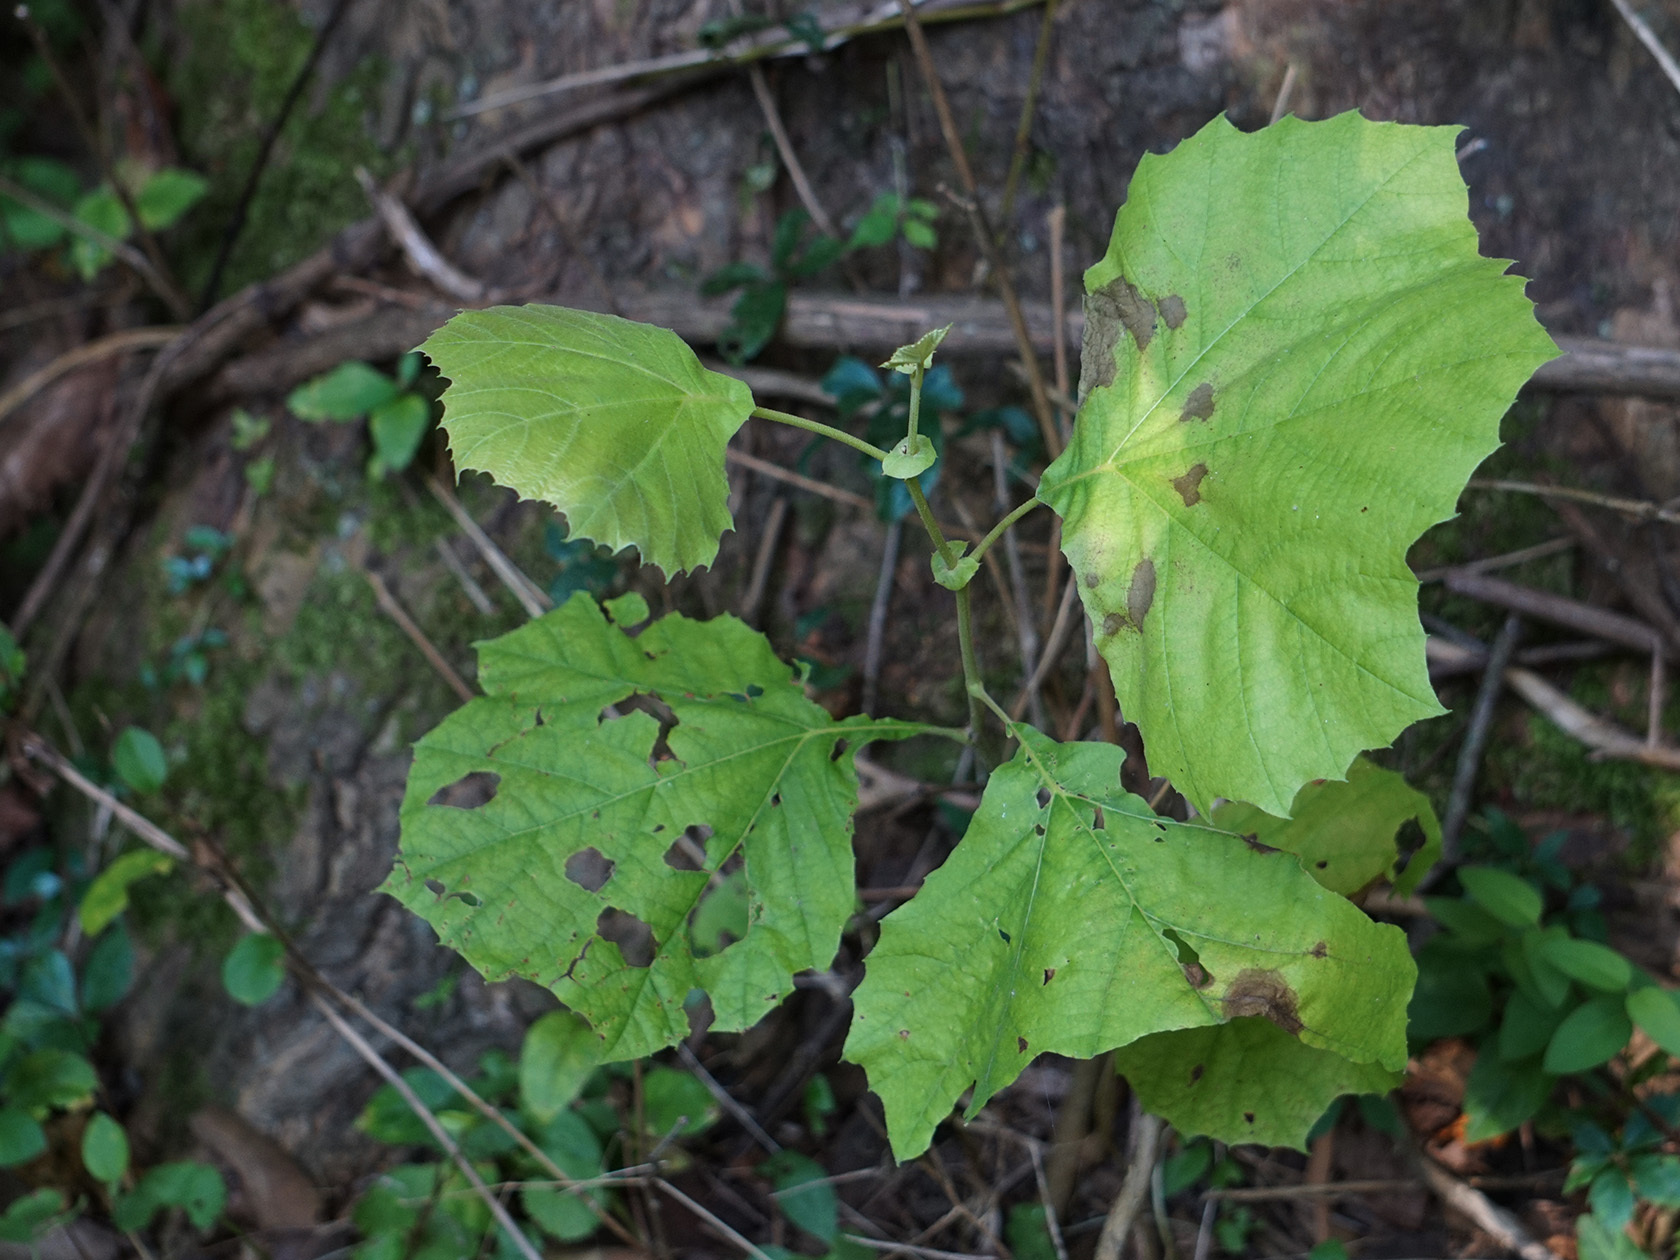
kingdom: Plantae
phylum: Tracheophyta
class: Magnoliopsida
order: Proteales
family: Platanaceae
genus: Platanus
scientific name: Platanus occidentalis
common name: American sycamore
